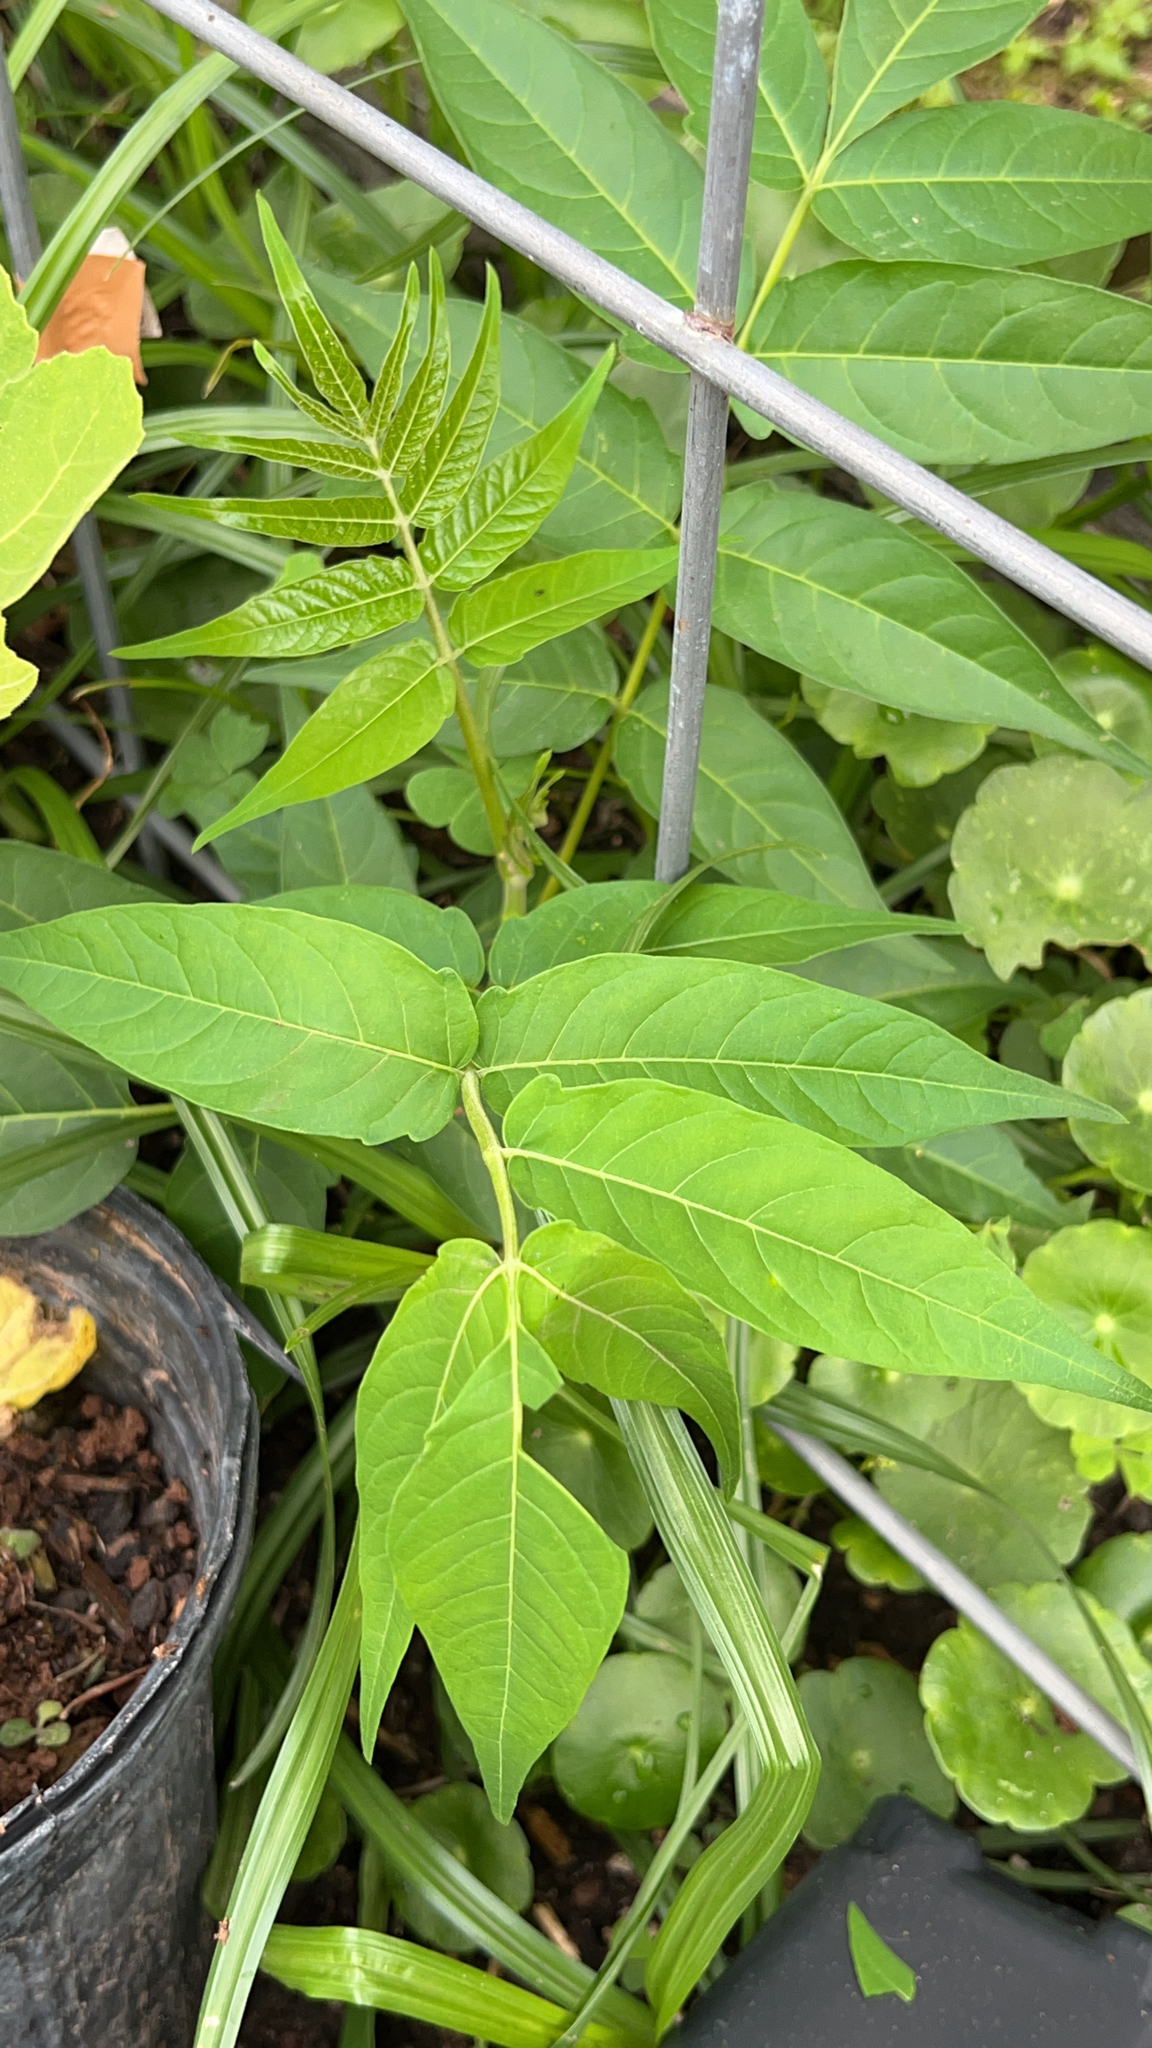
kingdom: Plantae
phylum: Tracheophyta
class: Magnoliopsida
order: Sapindales
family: Simaroubaceae
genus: Ailanthus
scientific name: Ailanthus altissima
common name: Tree-of-heaven
